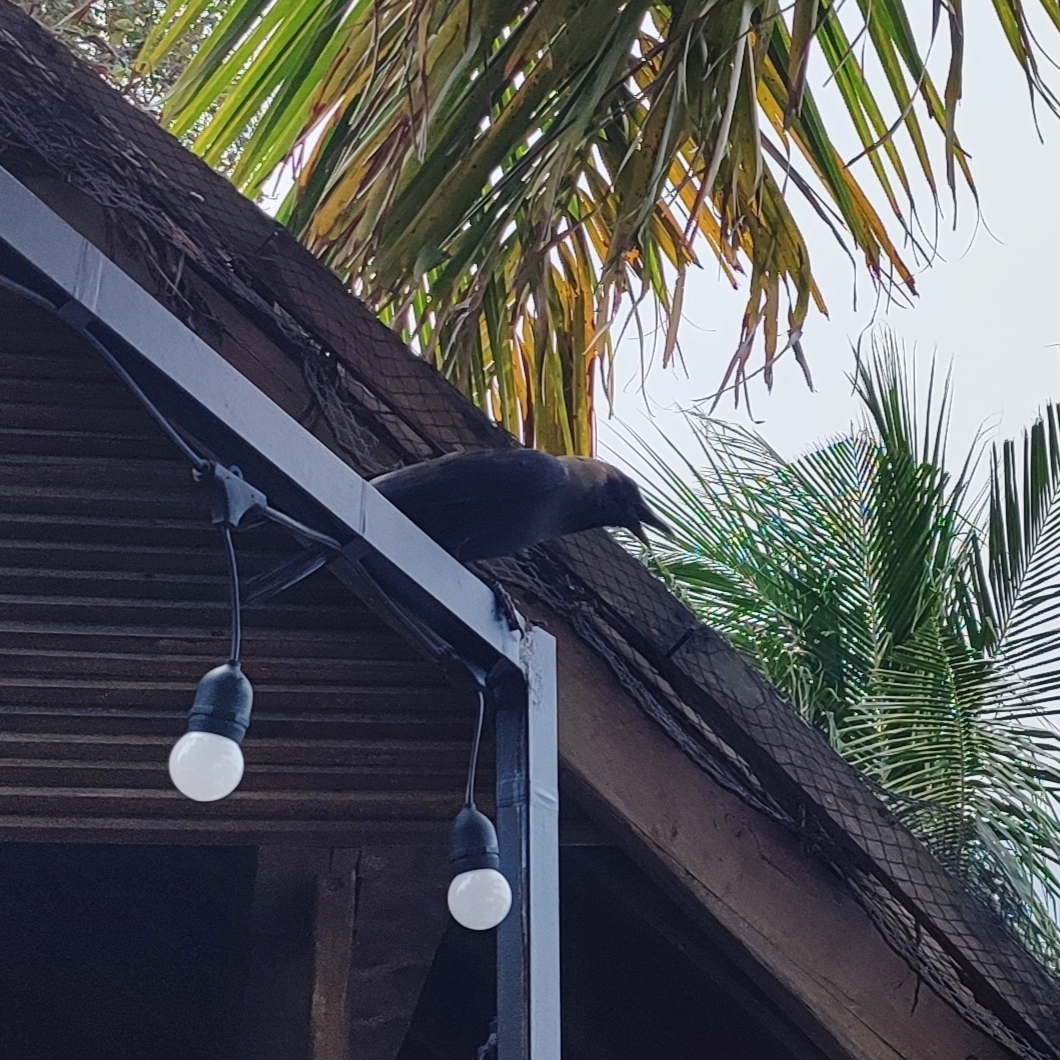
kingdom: Animalia
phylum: Chordata
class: Aves
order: Passeriformes
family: Corvidae
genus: Corvus
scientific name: Corvus splendens
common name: House crow
